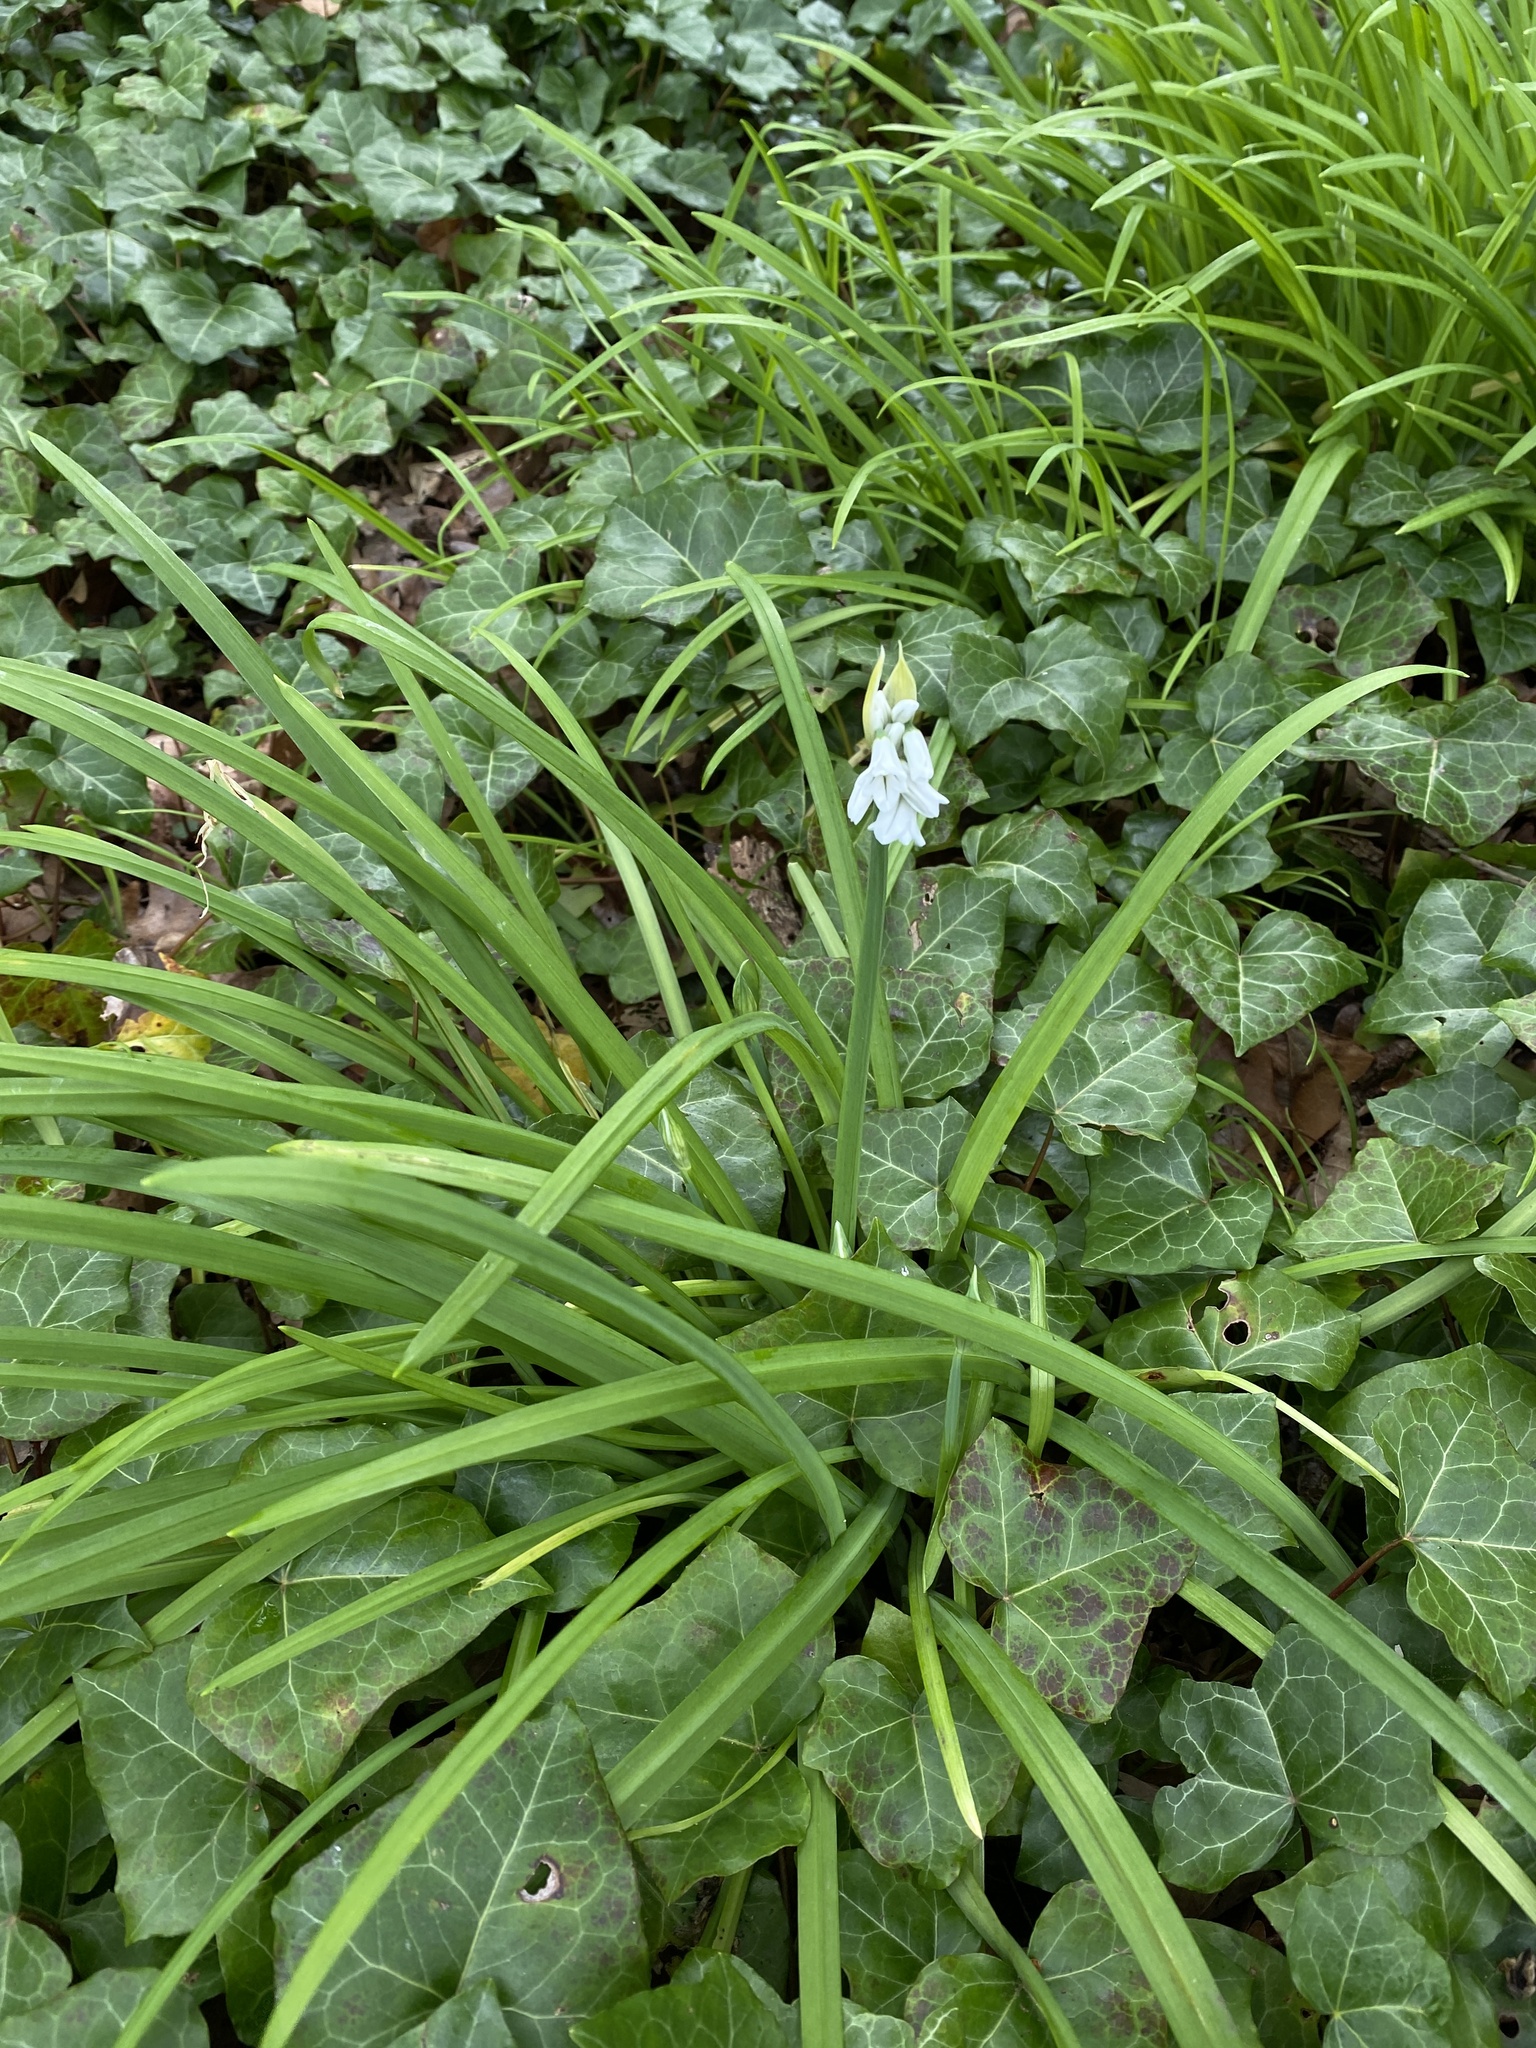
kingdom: Plantae
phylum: Tracheophyta
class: Liliopsida
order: Asparagales
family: Amaryllidaceae
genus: Allium
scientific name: Allium triquetrum
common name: Three-cornered garlic
